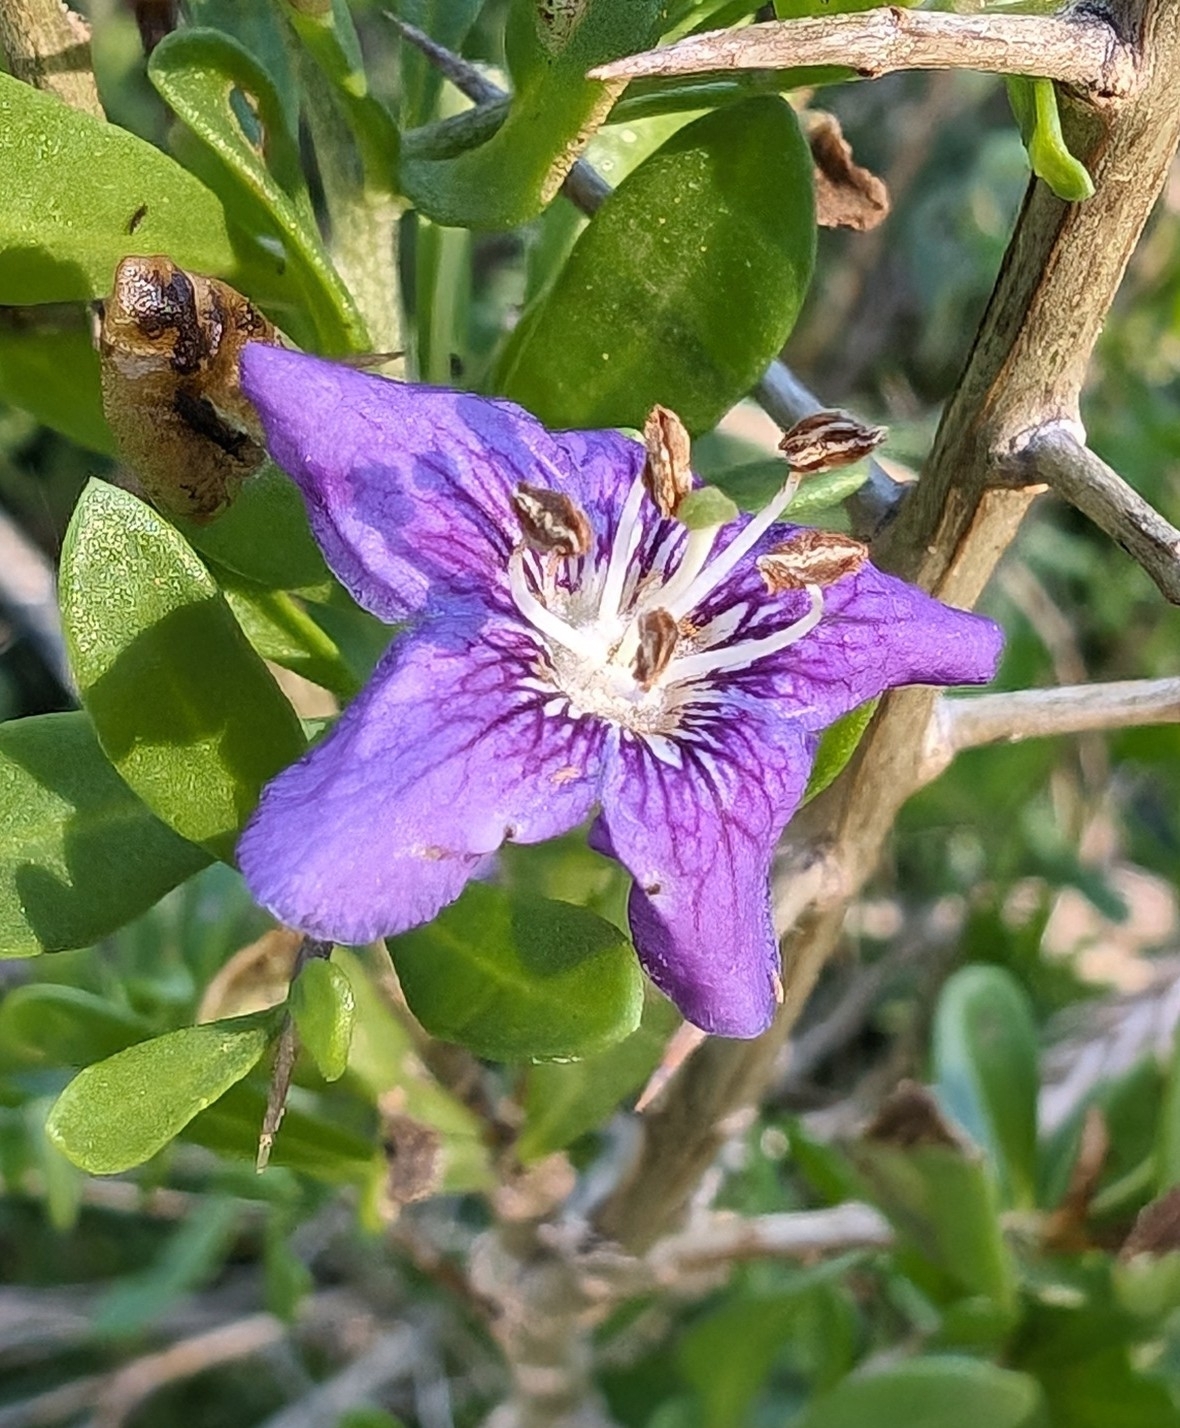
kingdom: Plantae
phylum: Tracheophyta
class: Magnoliopsida
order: Solanales
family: Solanaceae
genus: Lycium
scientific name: Lycium carolinianum
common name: Christmasberry
